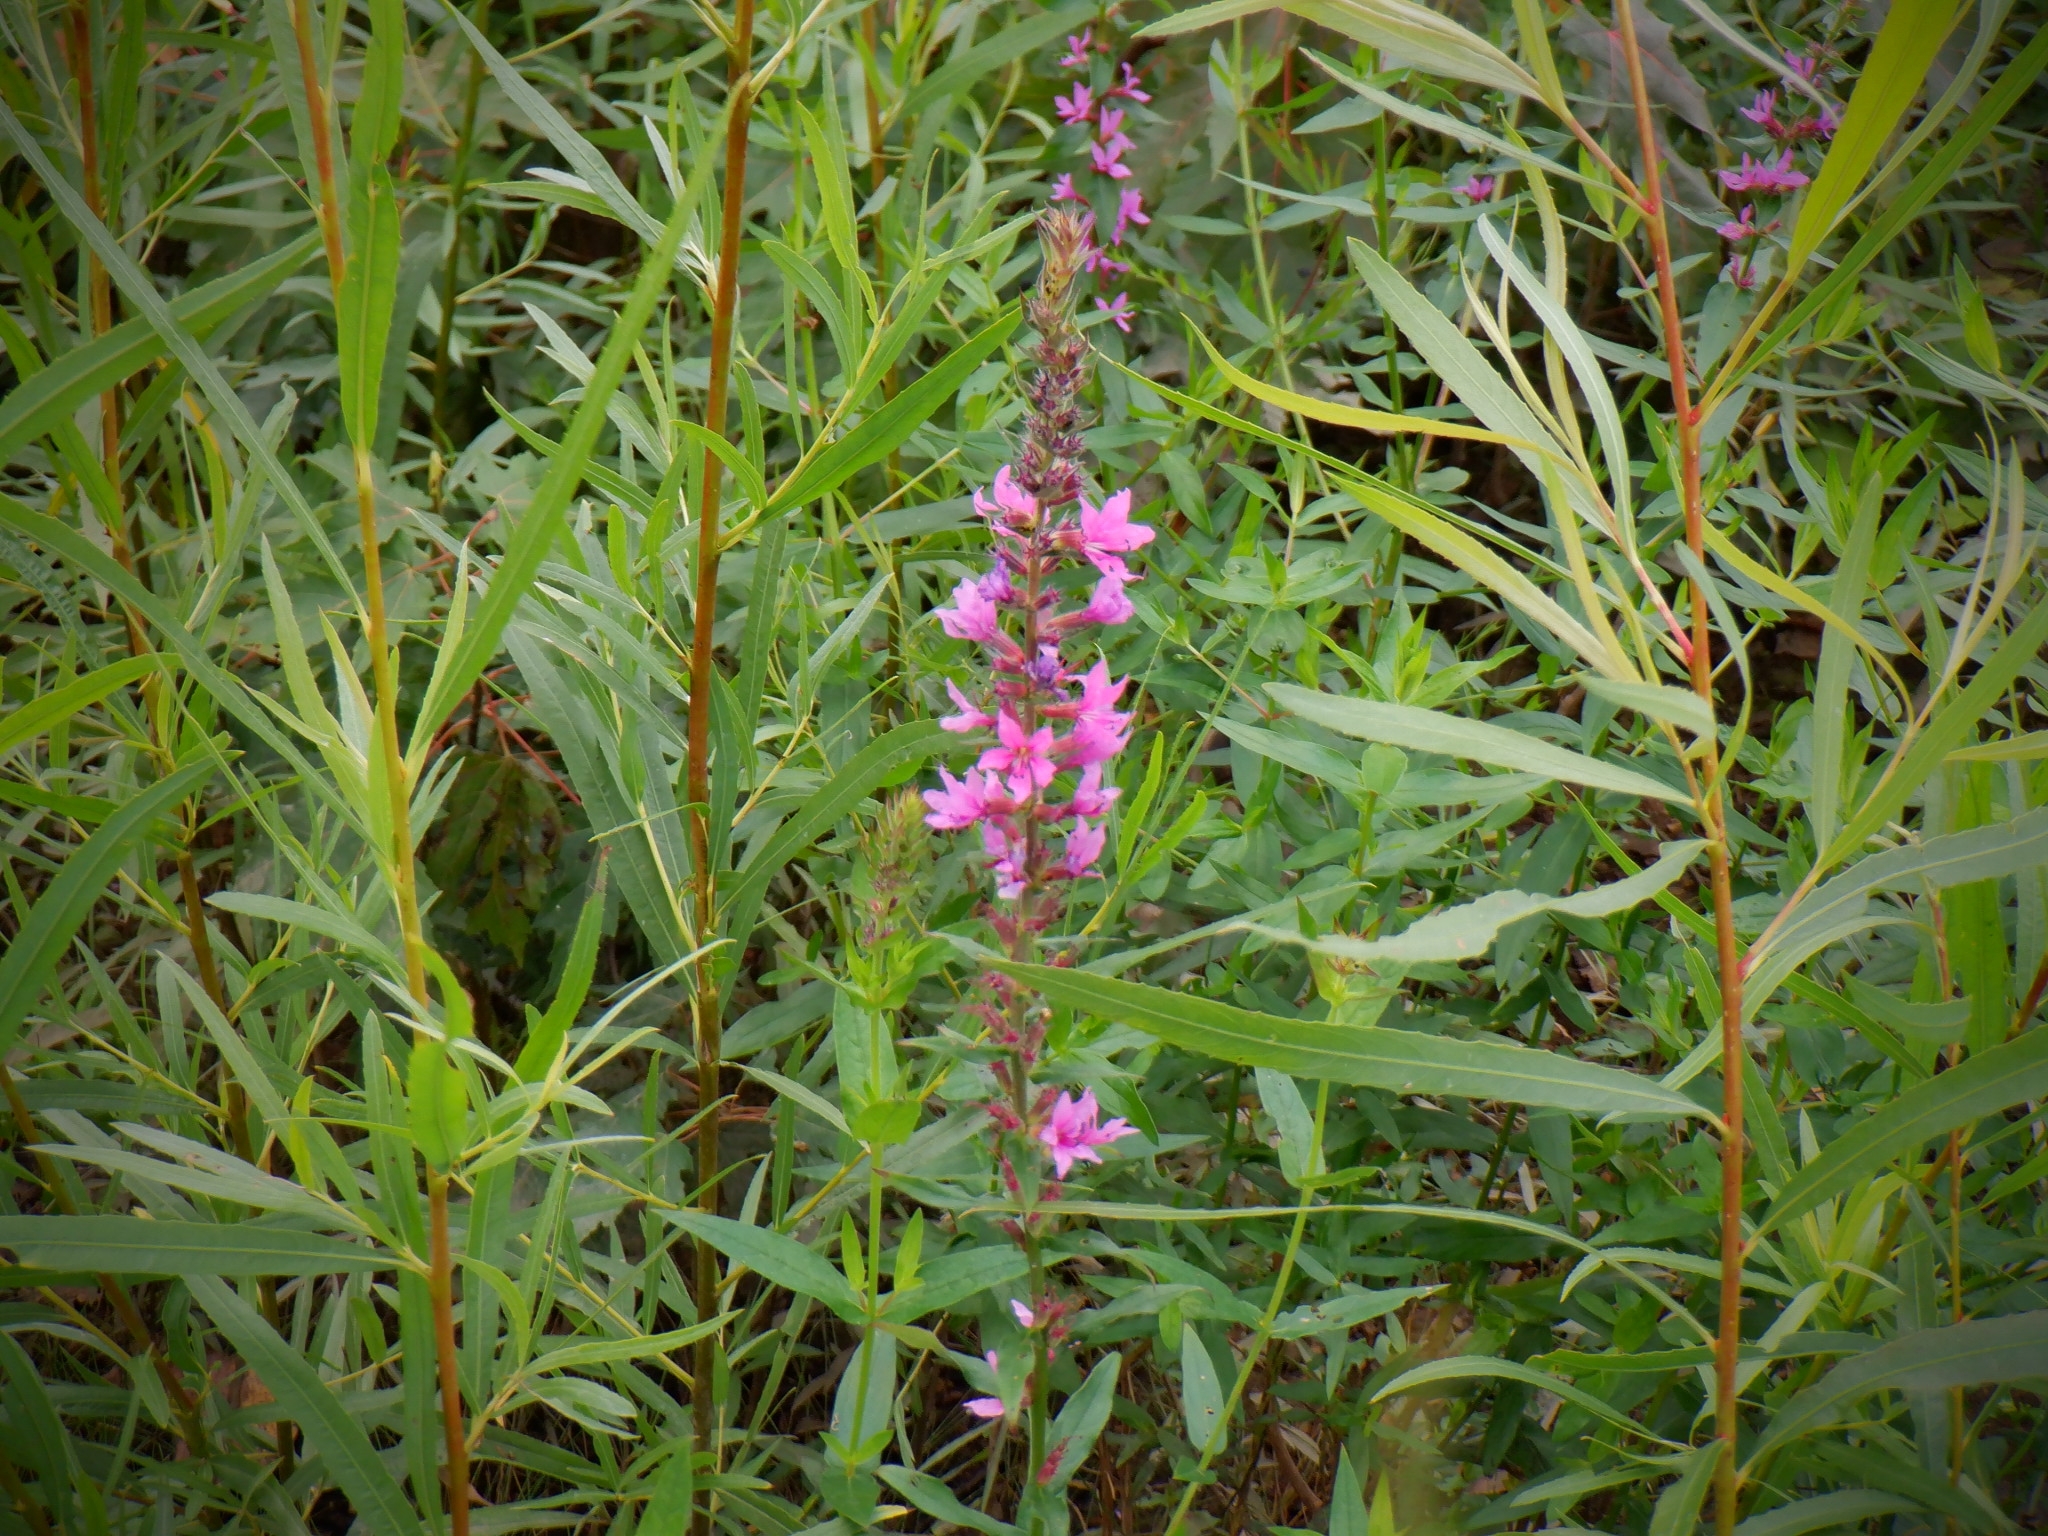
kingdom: Plantae
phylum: Tracheophyta
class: Magnoliopsida
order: Myrtales
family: Lythraceae
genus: Lythrum
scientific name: Lythrum salicaria
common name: Purple loosestrife
